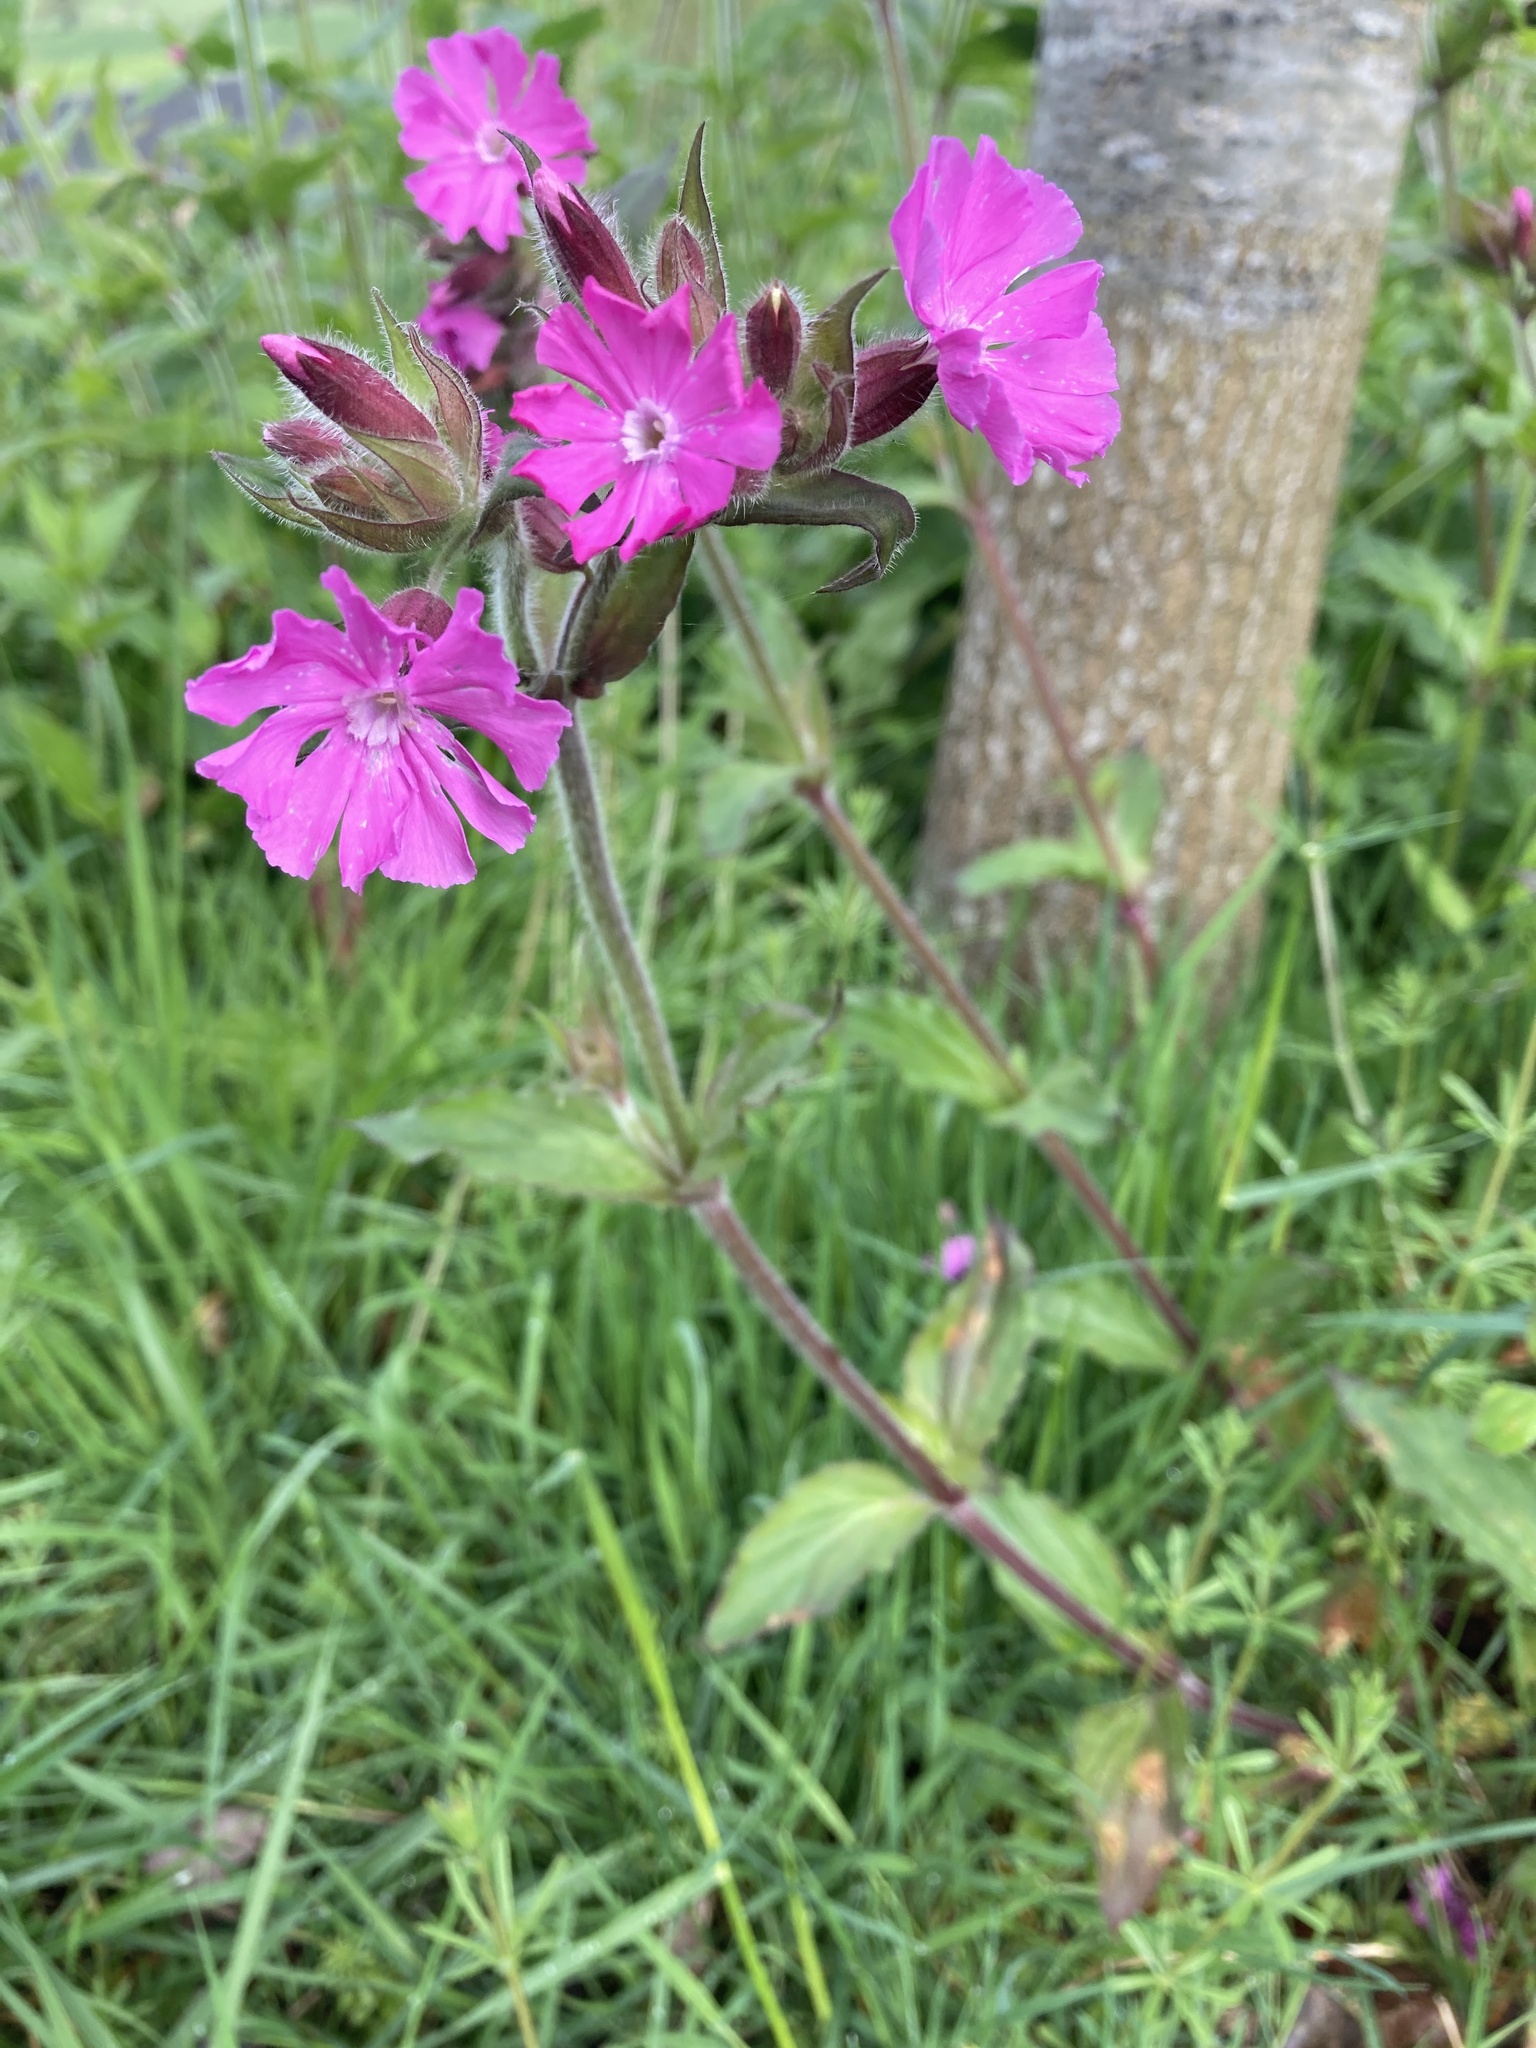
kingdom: Plantae
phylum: Tracheophyta
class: Magnoliopsida
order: Caryophyllales
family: Caryophyllaceae
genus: Silene
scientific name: Silene dioica
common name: Red campion
